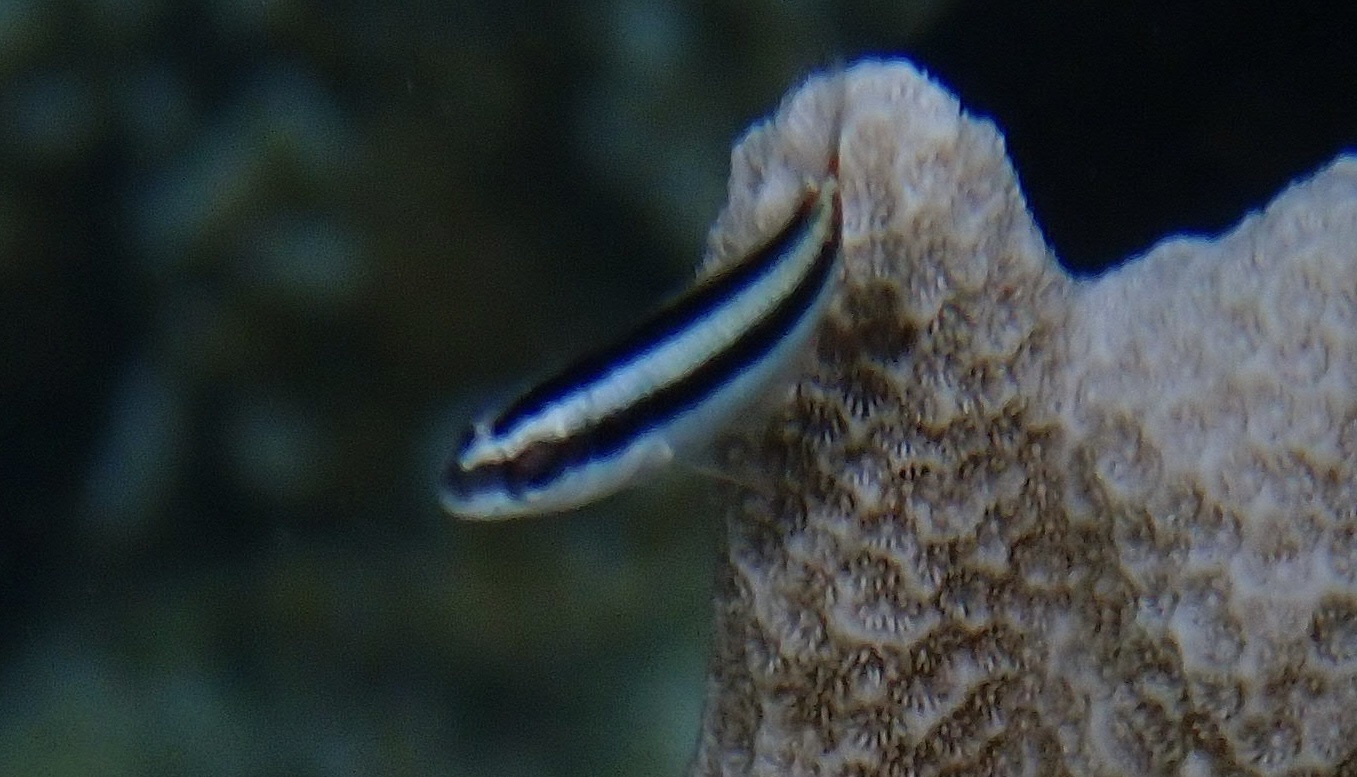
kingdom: Animalia
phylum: Chordata
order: Perciformes
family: Labridae
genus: Thalassoma
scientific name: Thalassoma amblycephalum
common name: Bluehead wrasse
